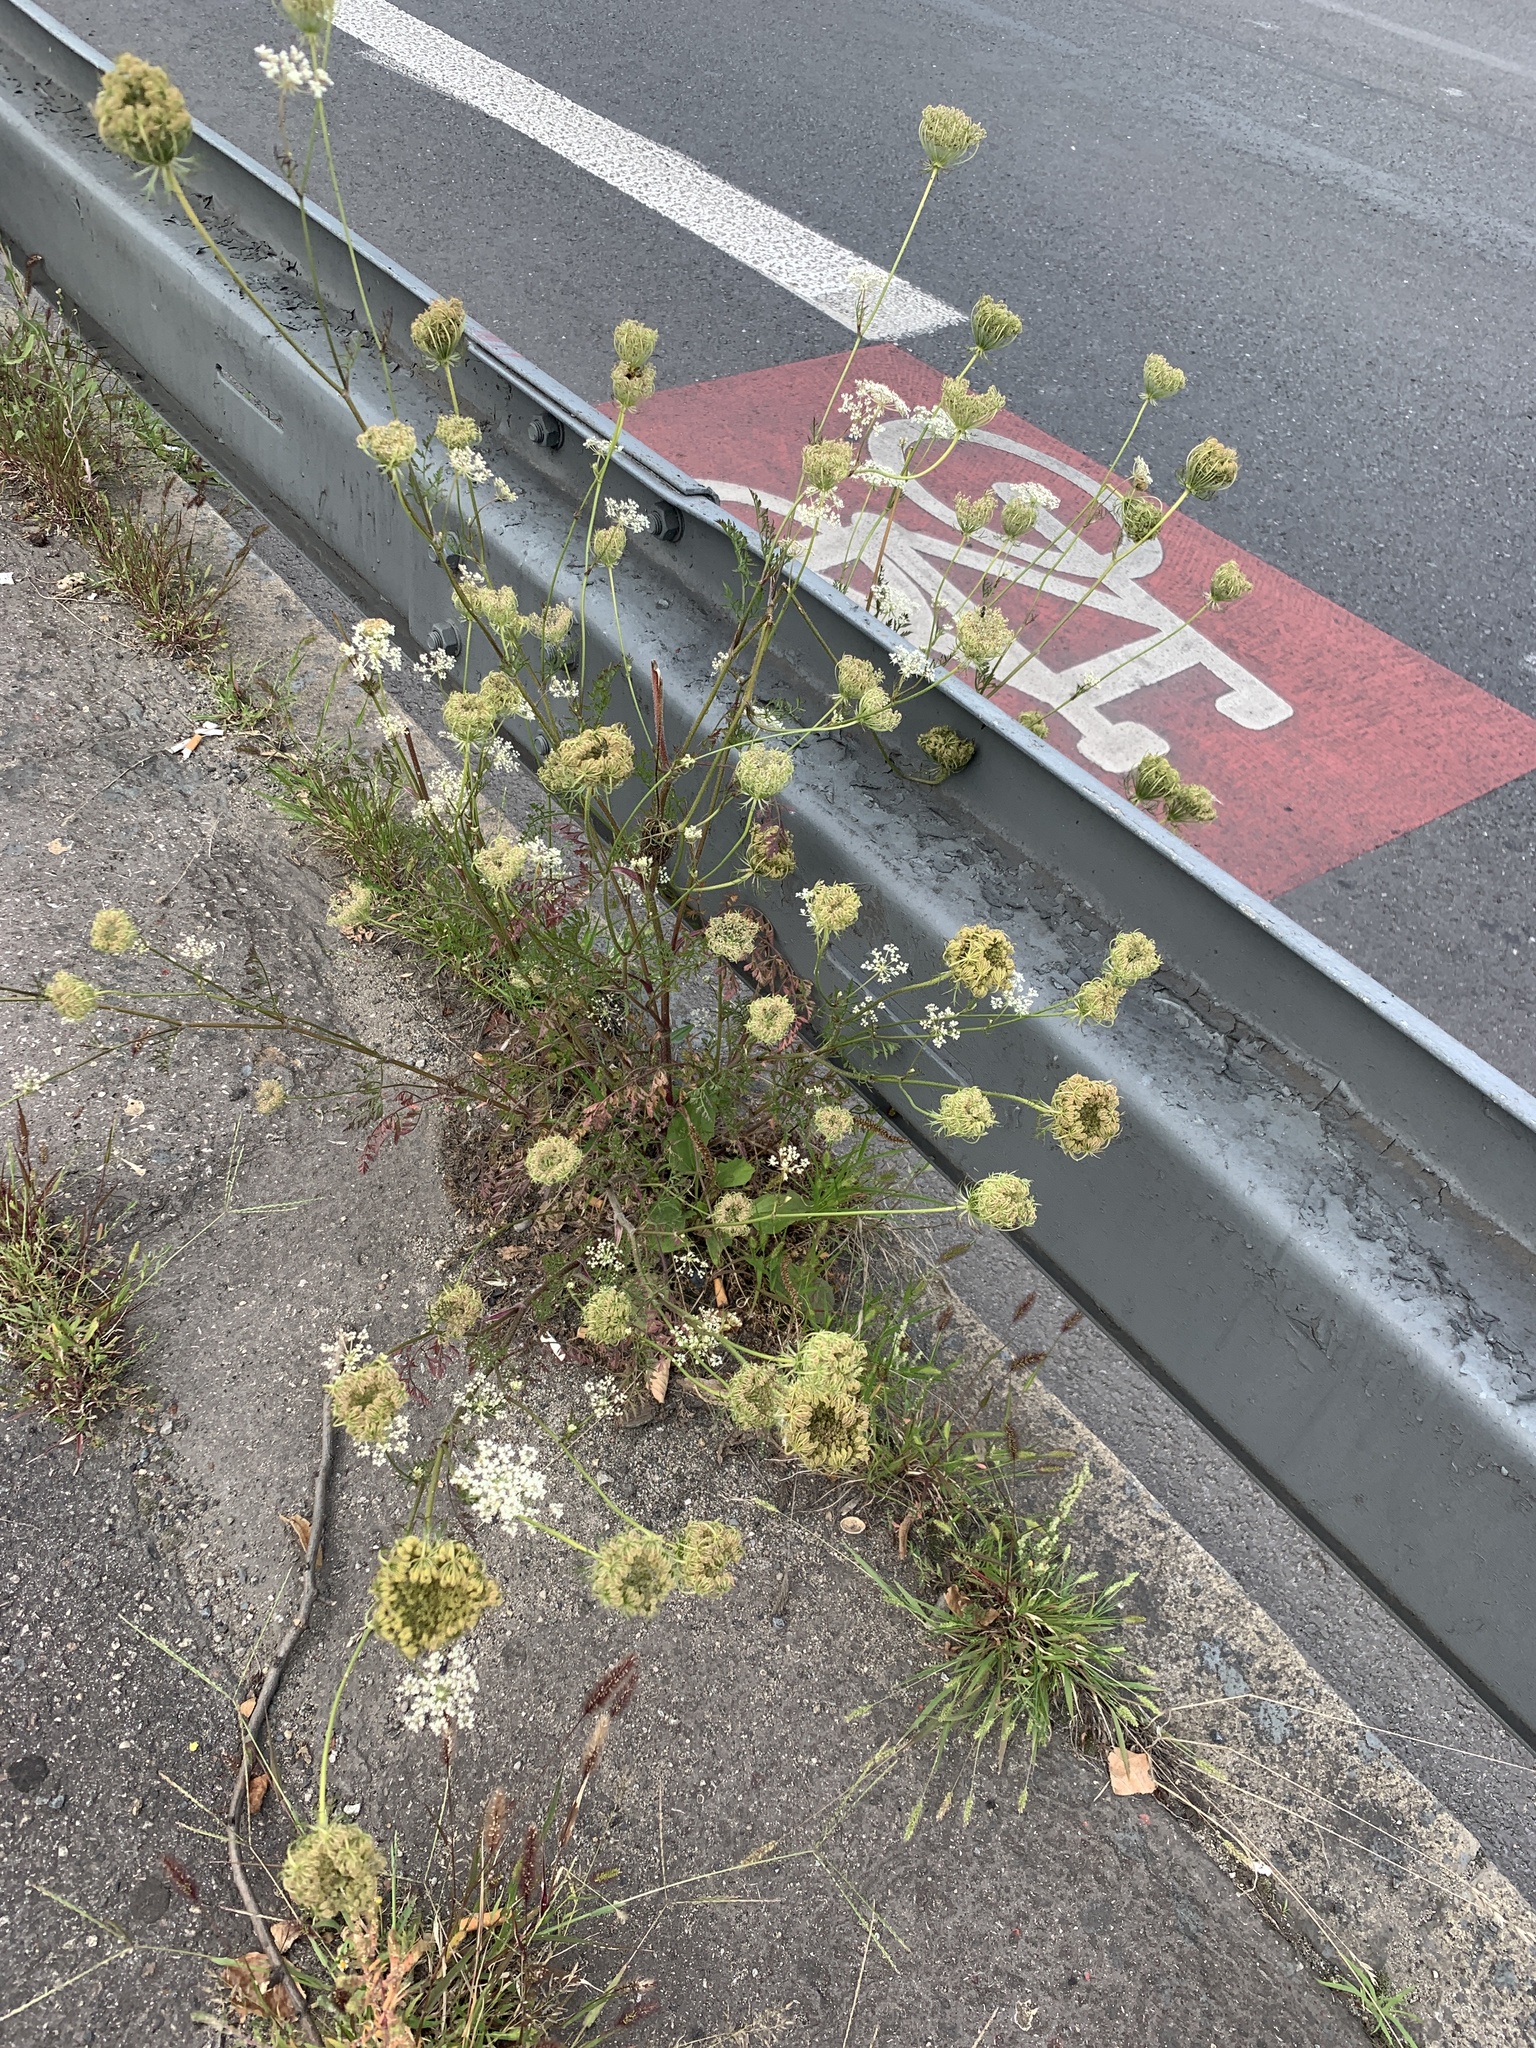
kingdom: Plantae
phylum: Tracheophyta
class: Magnoliopsida
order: Apiales
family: Apiaceae
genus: Daucus
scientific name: Daucus carota
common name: Wild carrot
